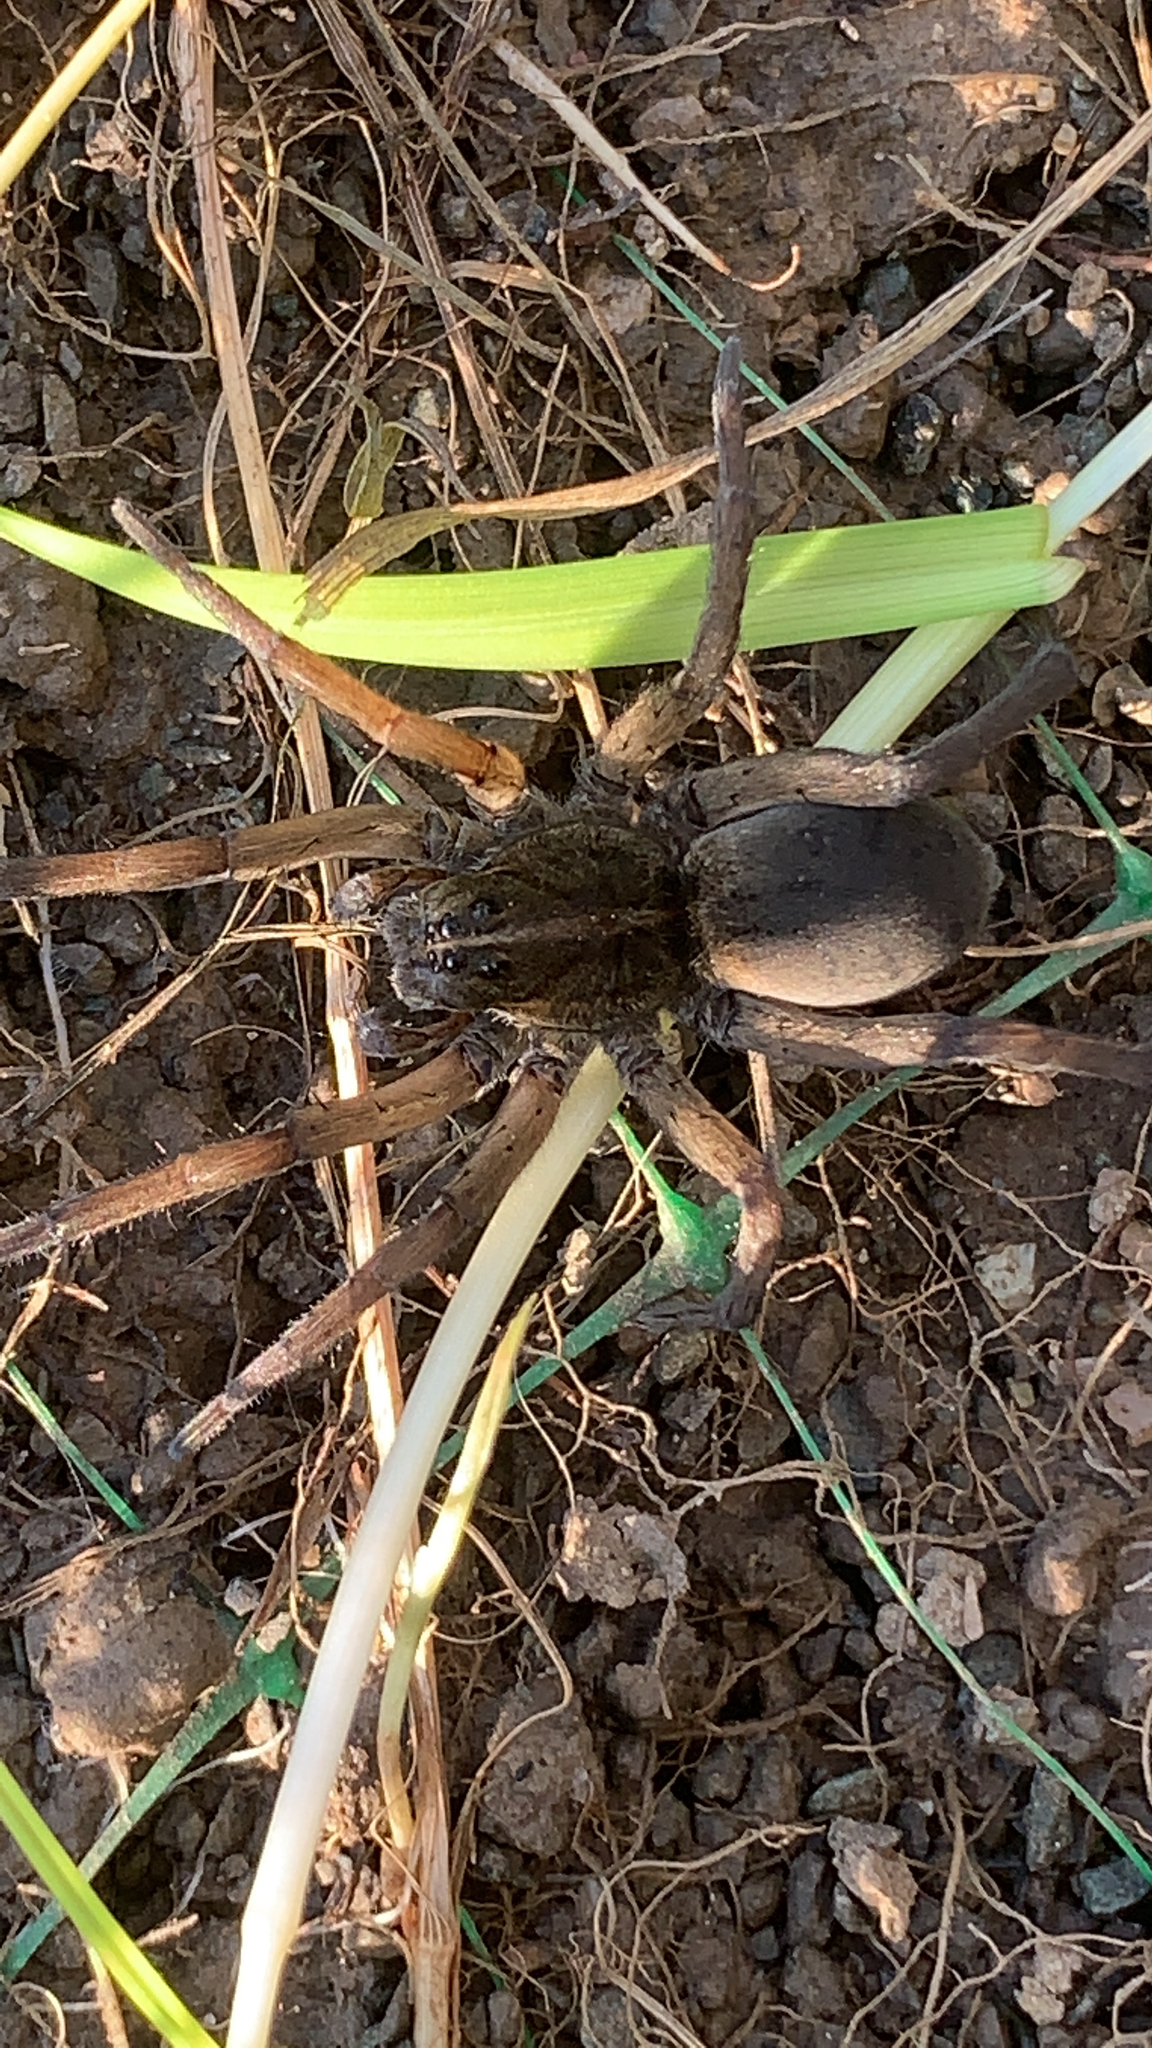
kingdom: Animalia
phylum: Arthropoda
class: Arachnida
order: Araneae
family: Lycosidae
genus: Tigrosa
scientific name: Tigrosa helluo
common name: Wetland giant wolf spider
